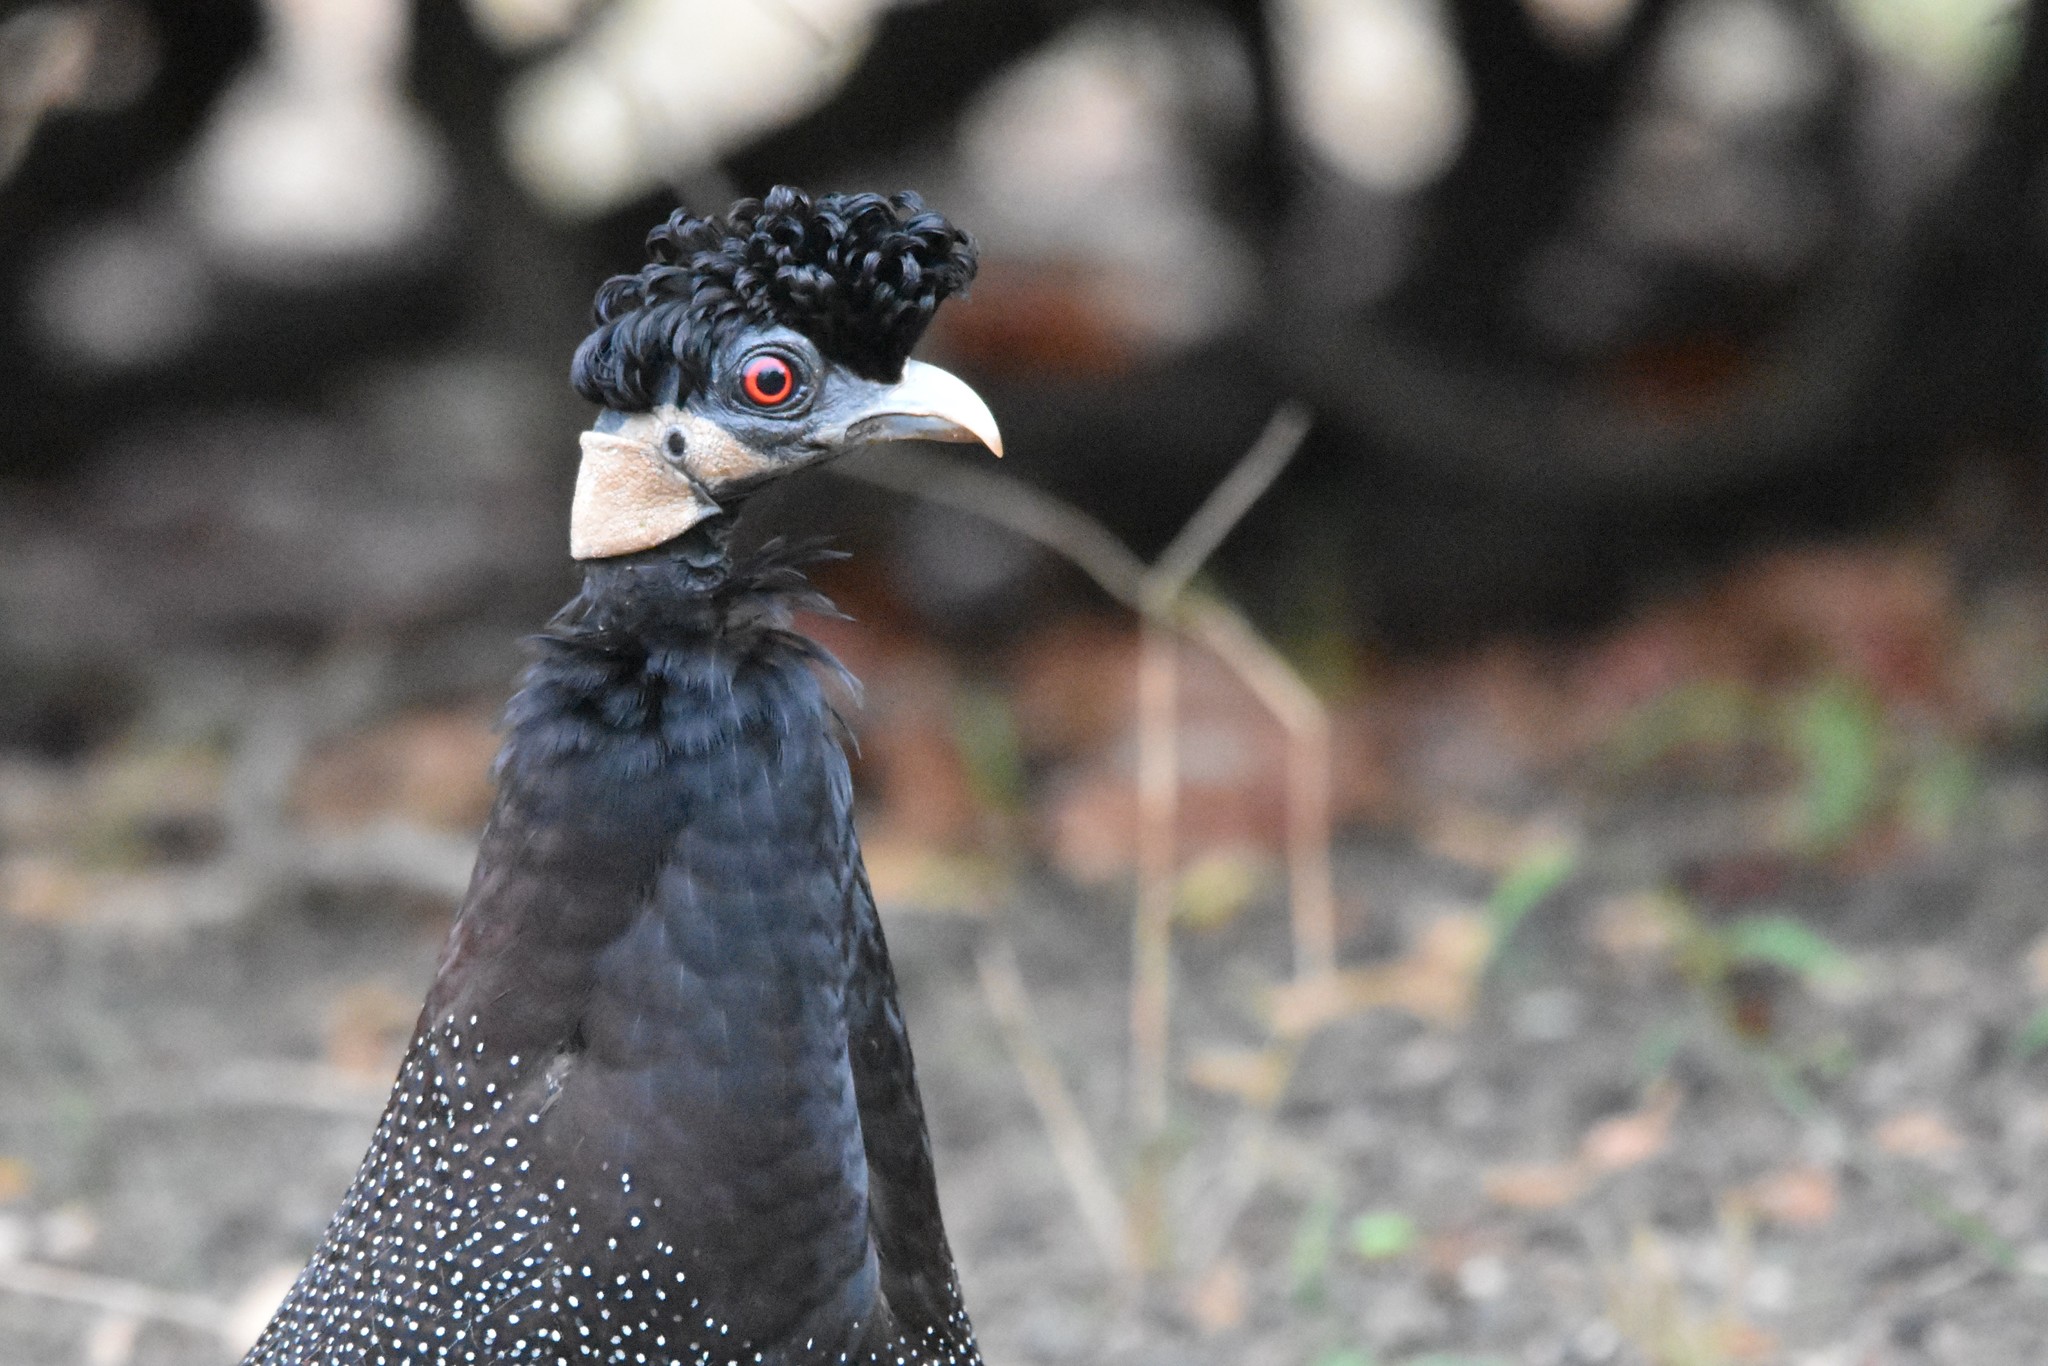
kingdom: Animalia
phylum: Chordata
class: Aves
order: Galliformes
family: Numididae
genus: Guttera
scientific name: Guttera pucherani
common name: Crested guineafowl
